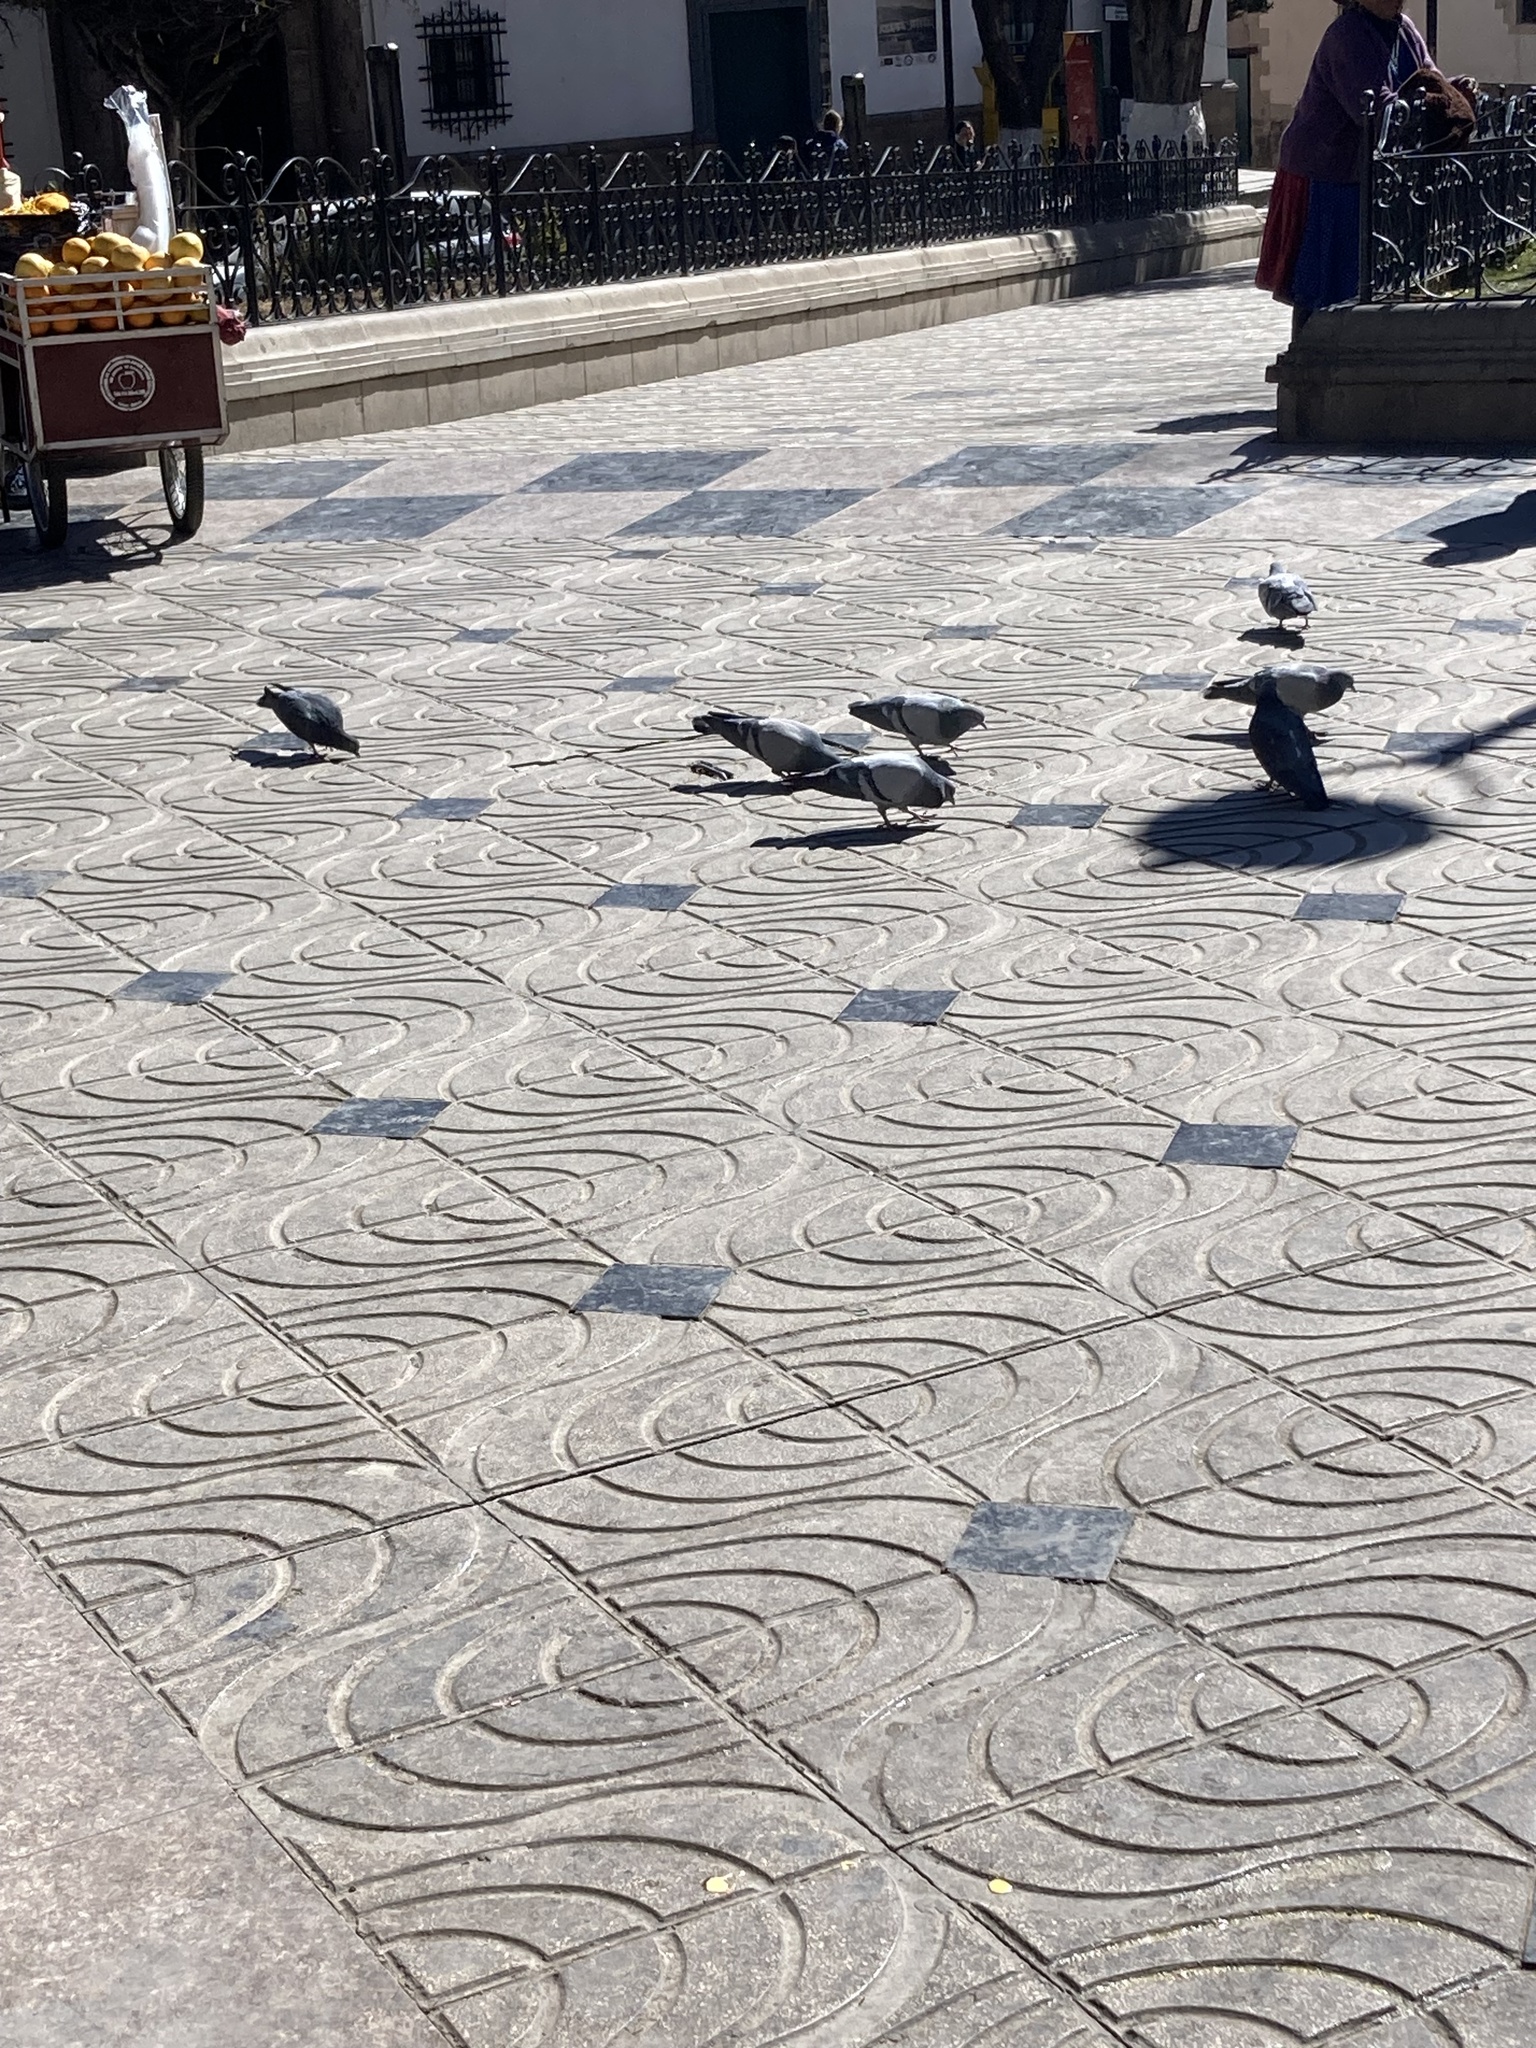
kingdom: Animalia
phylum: Chordata
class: Aves
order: Columbiformes
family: Columbidae
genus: Columba
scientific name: Columba livia
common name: Rock pigeon
